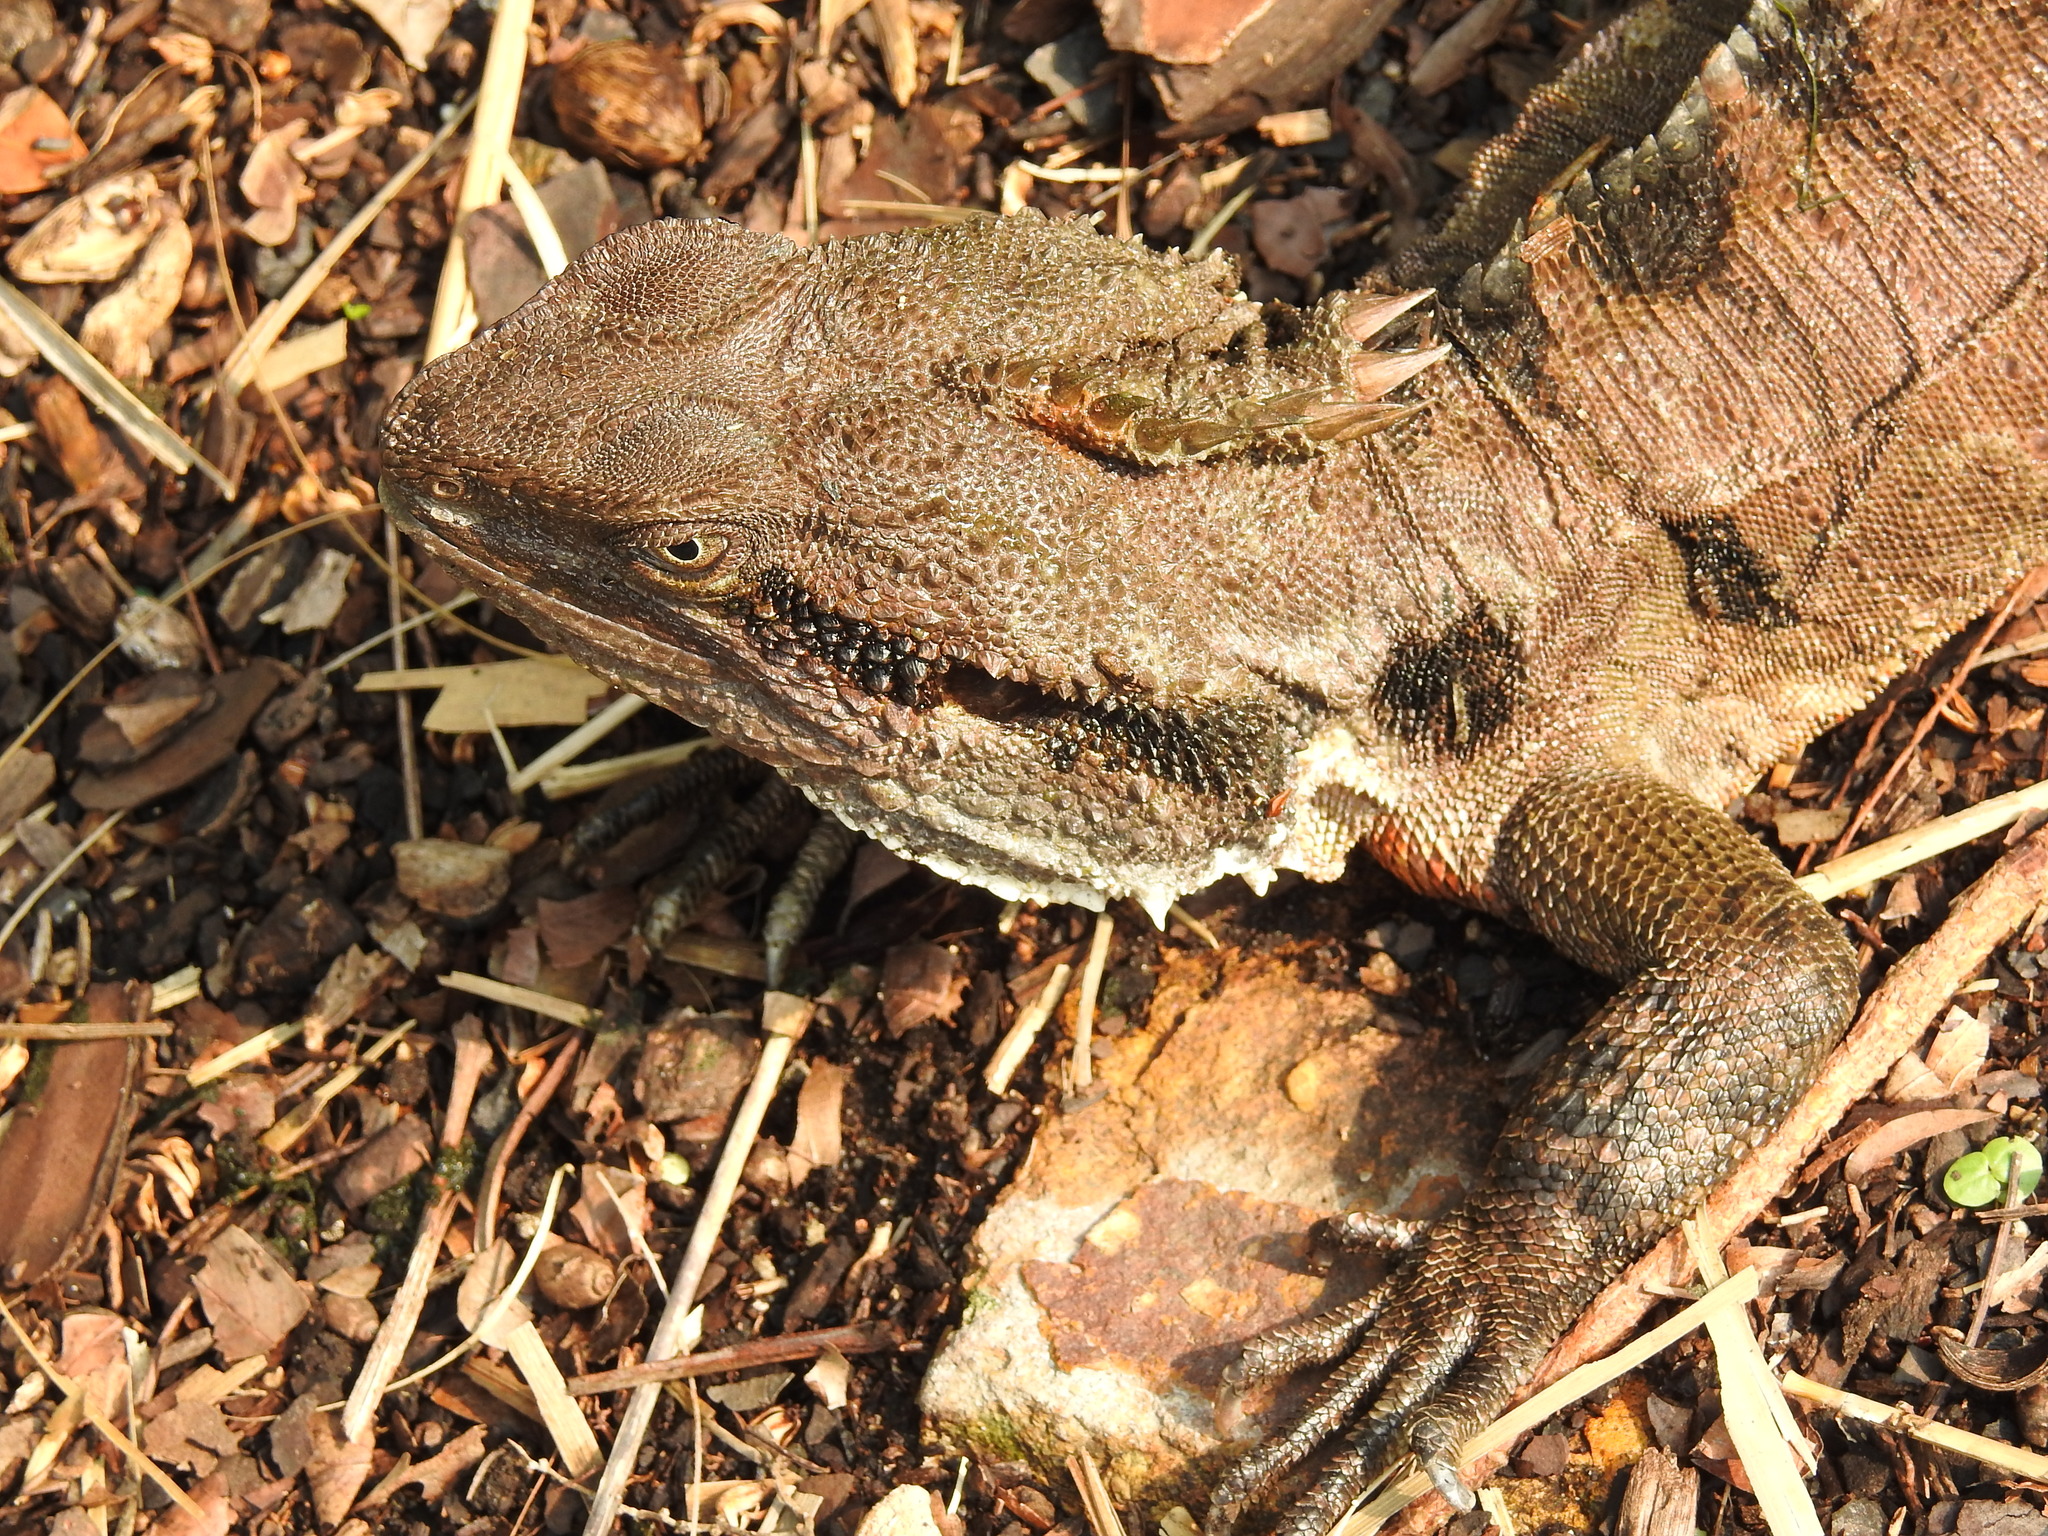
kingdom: Animalia
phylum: Chordata
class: Squamata
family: Agamidae
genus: Intellagama
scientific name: Intellagama lesueurii
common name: Eastern water dragon
